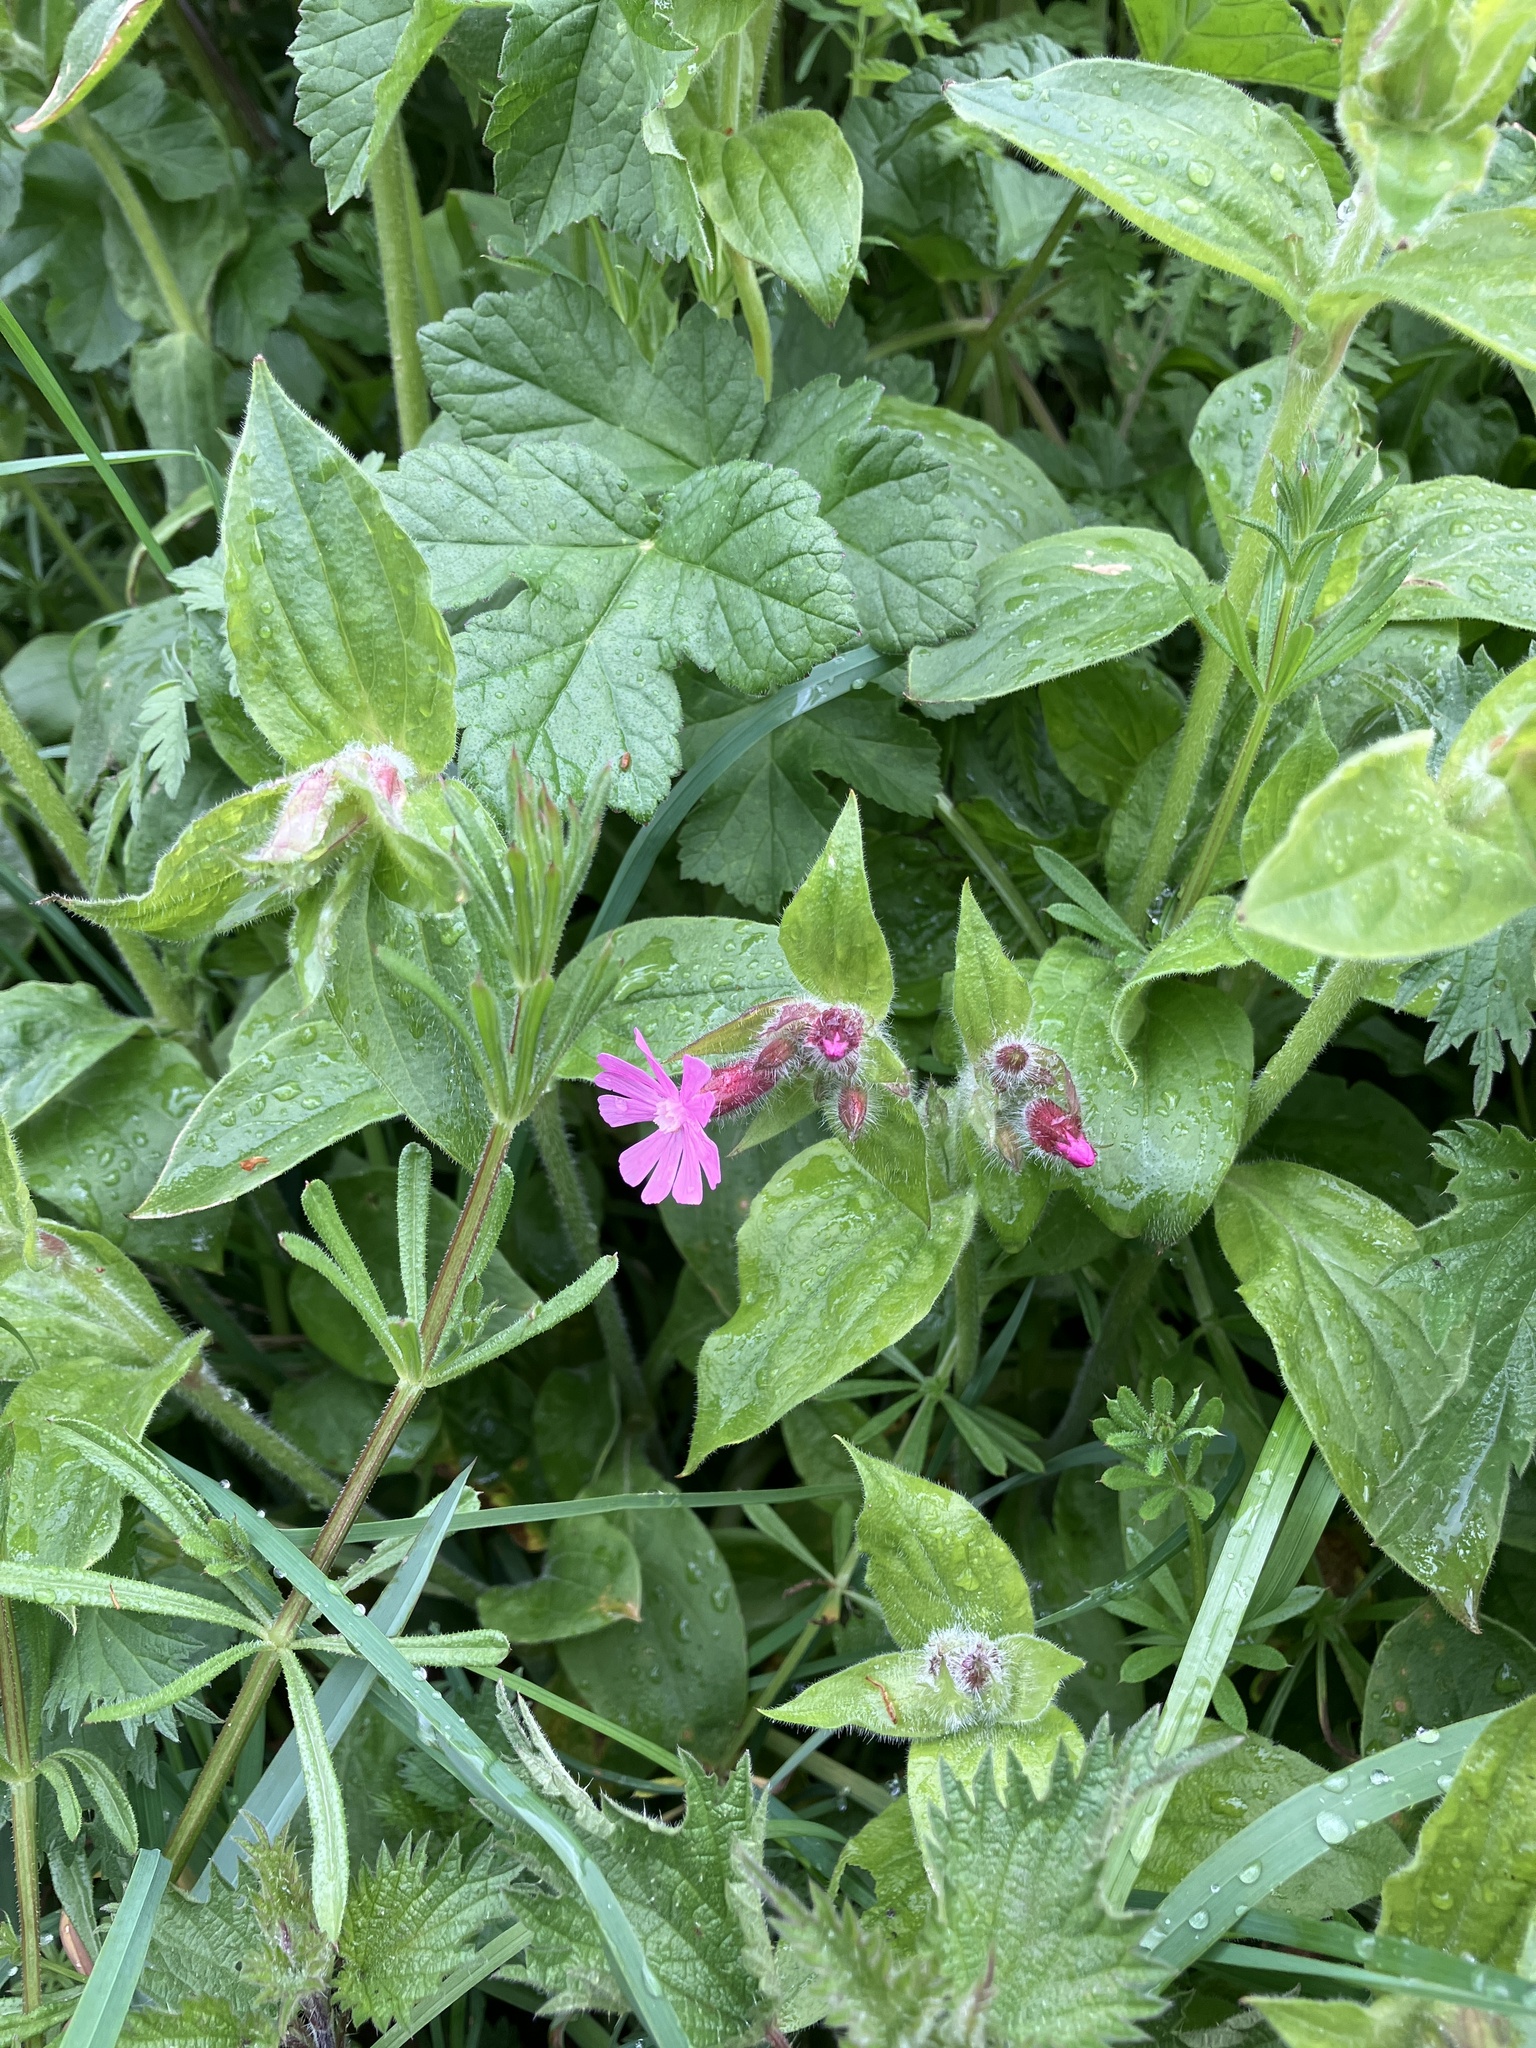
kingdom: Plantae
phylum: Tracheophyta
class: Magnoliopsida
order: Caryophyllales
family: Caryophyllaceae
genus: Silene
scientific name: Silene dioica
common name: Red campion
